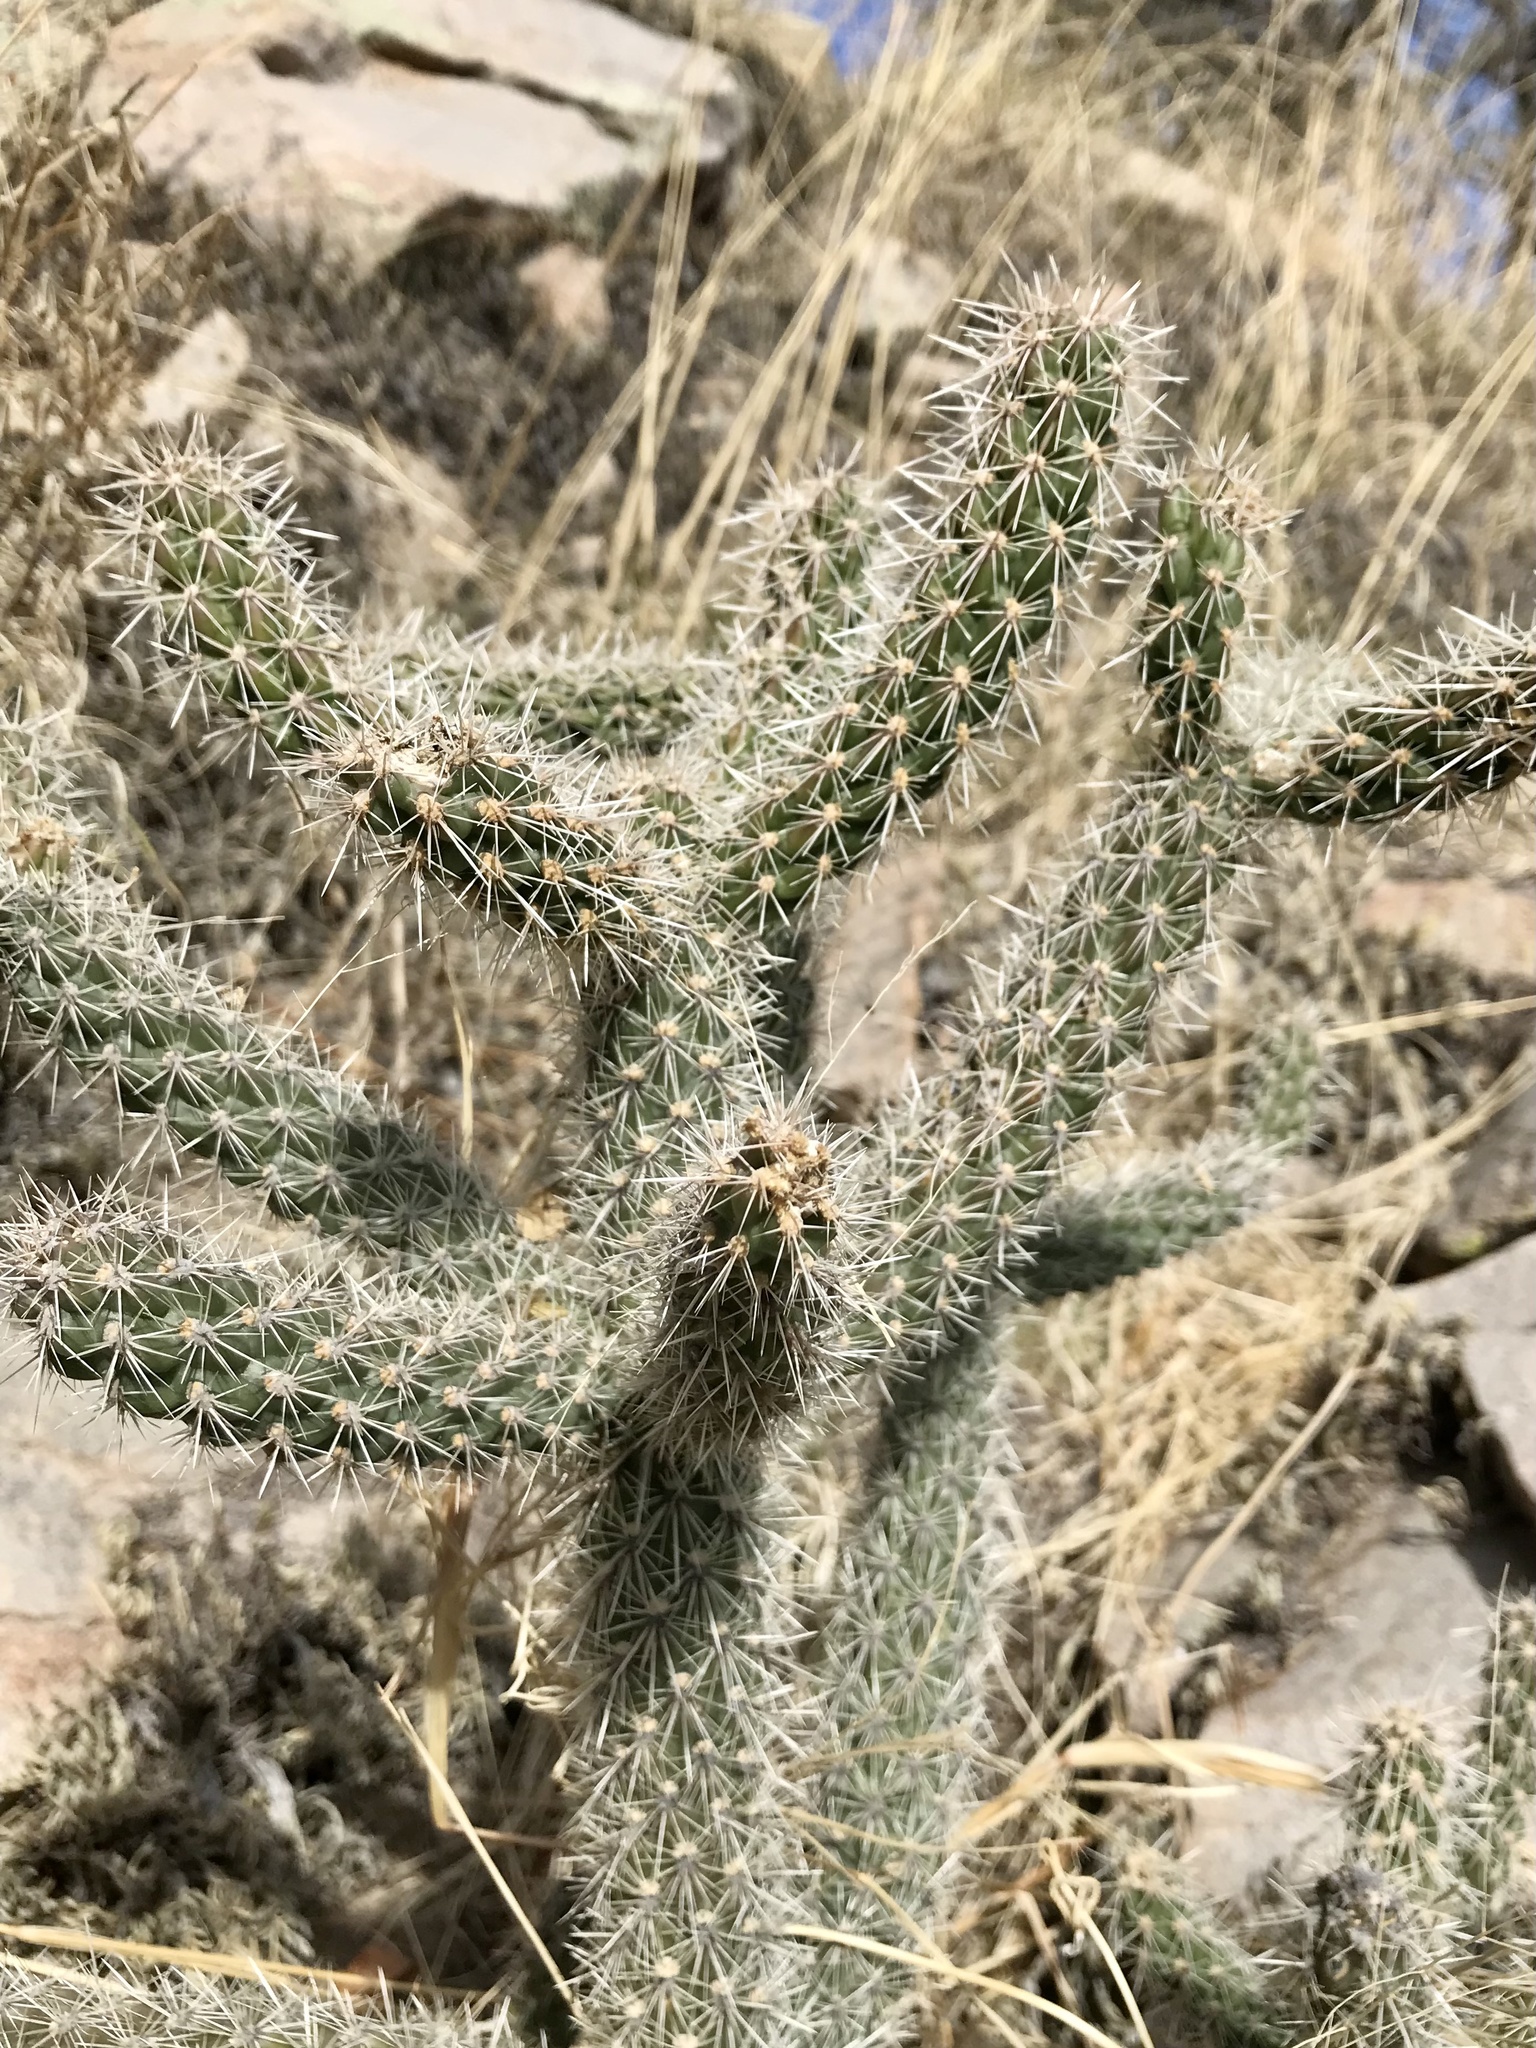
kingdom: Plantae
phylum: Tracheophyta
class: Magnoliopsida
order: Caryophyllales
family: Cactaceae
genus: Cylindropuntia
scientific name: Cylindropuntia imbricata
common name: Candelabrum cactus
